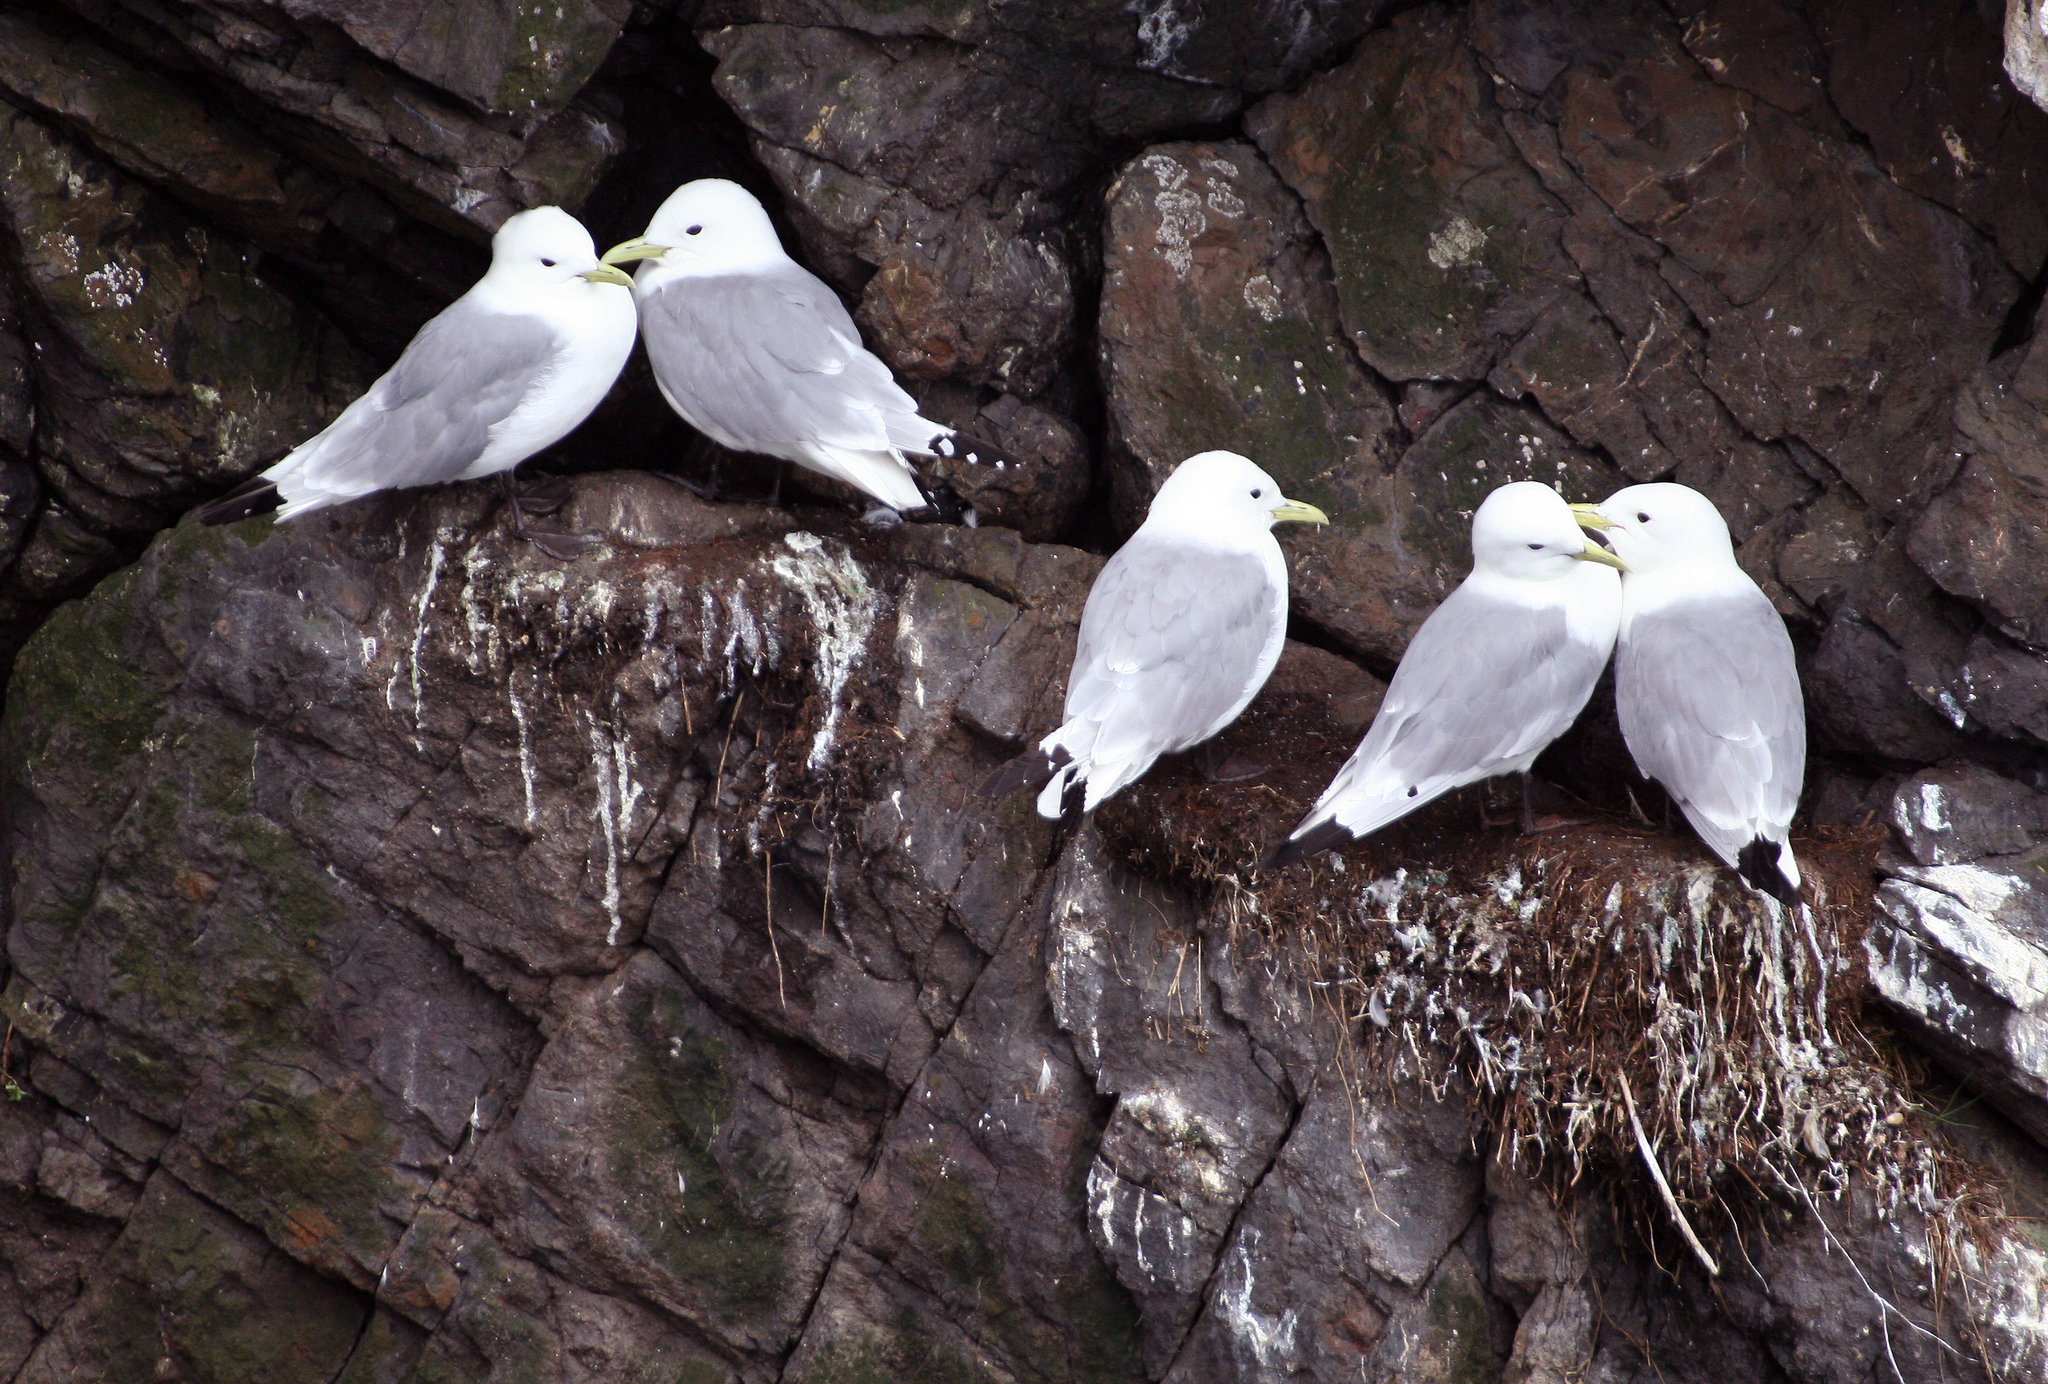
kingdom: Animalia
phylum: Chordata
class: Aves
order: Charadriiformes
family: Laridae
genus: Rissa
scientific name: Rissa tridactyla
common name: Black-legged kittiwake
